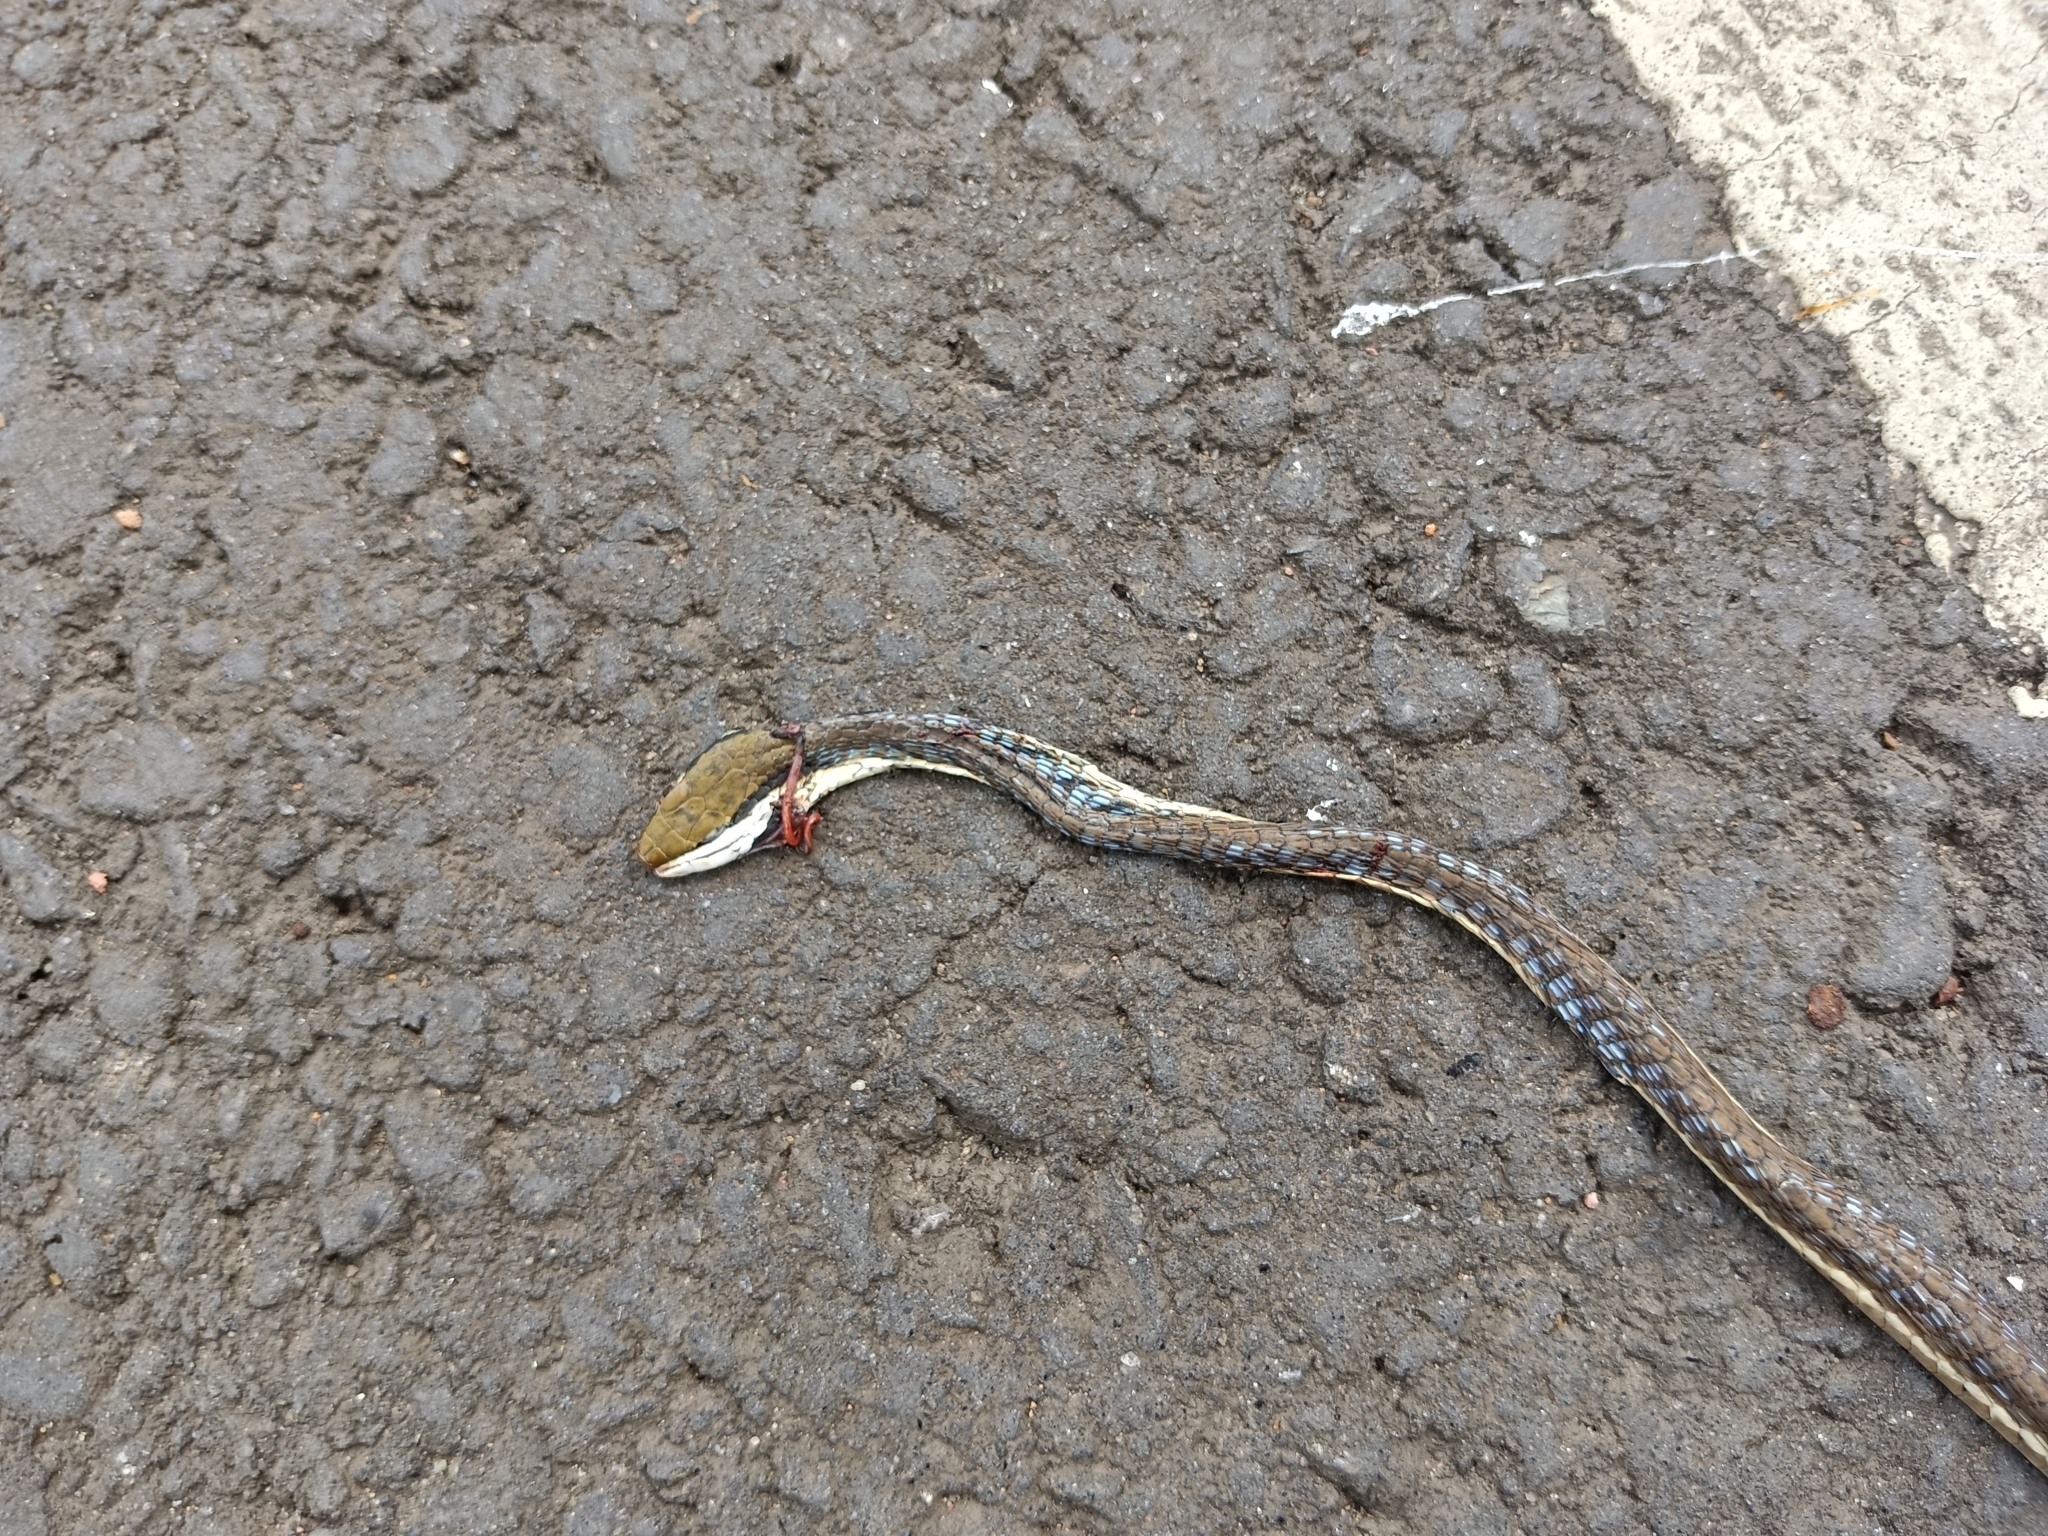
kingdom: Animalia
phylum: Chordata
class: Squamata
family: Colubridae
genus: Dendrelaphis
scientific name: Dendrelaphis girii
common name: Giri's bronzeback tree snake
